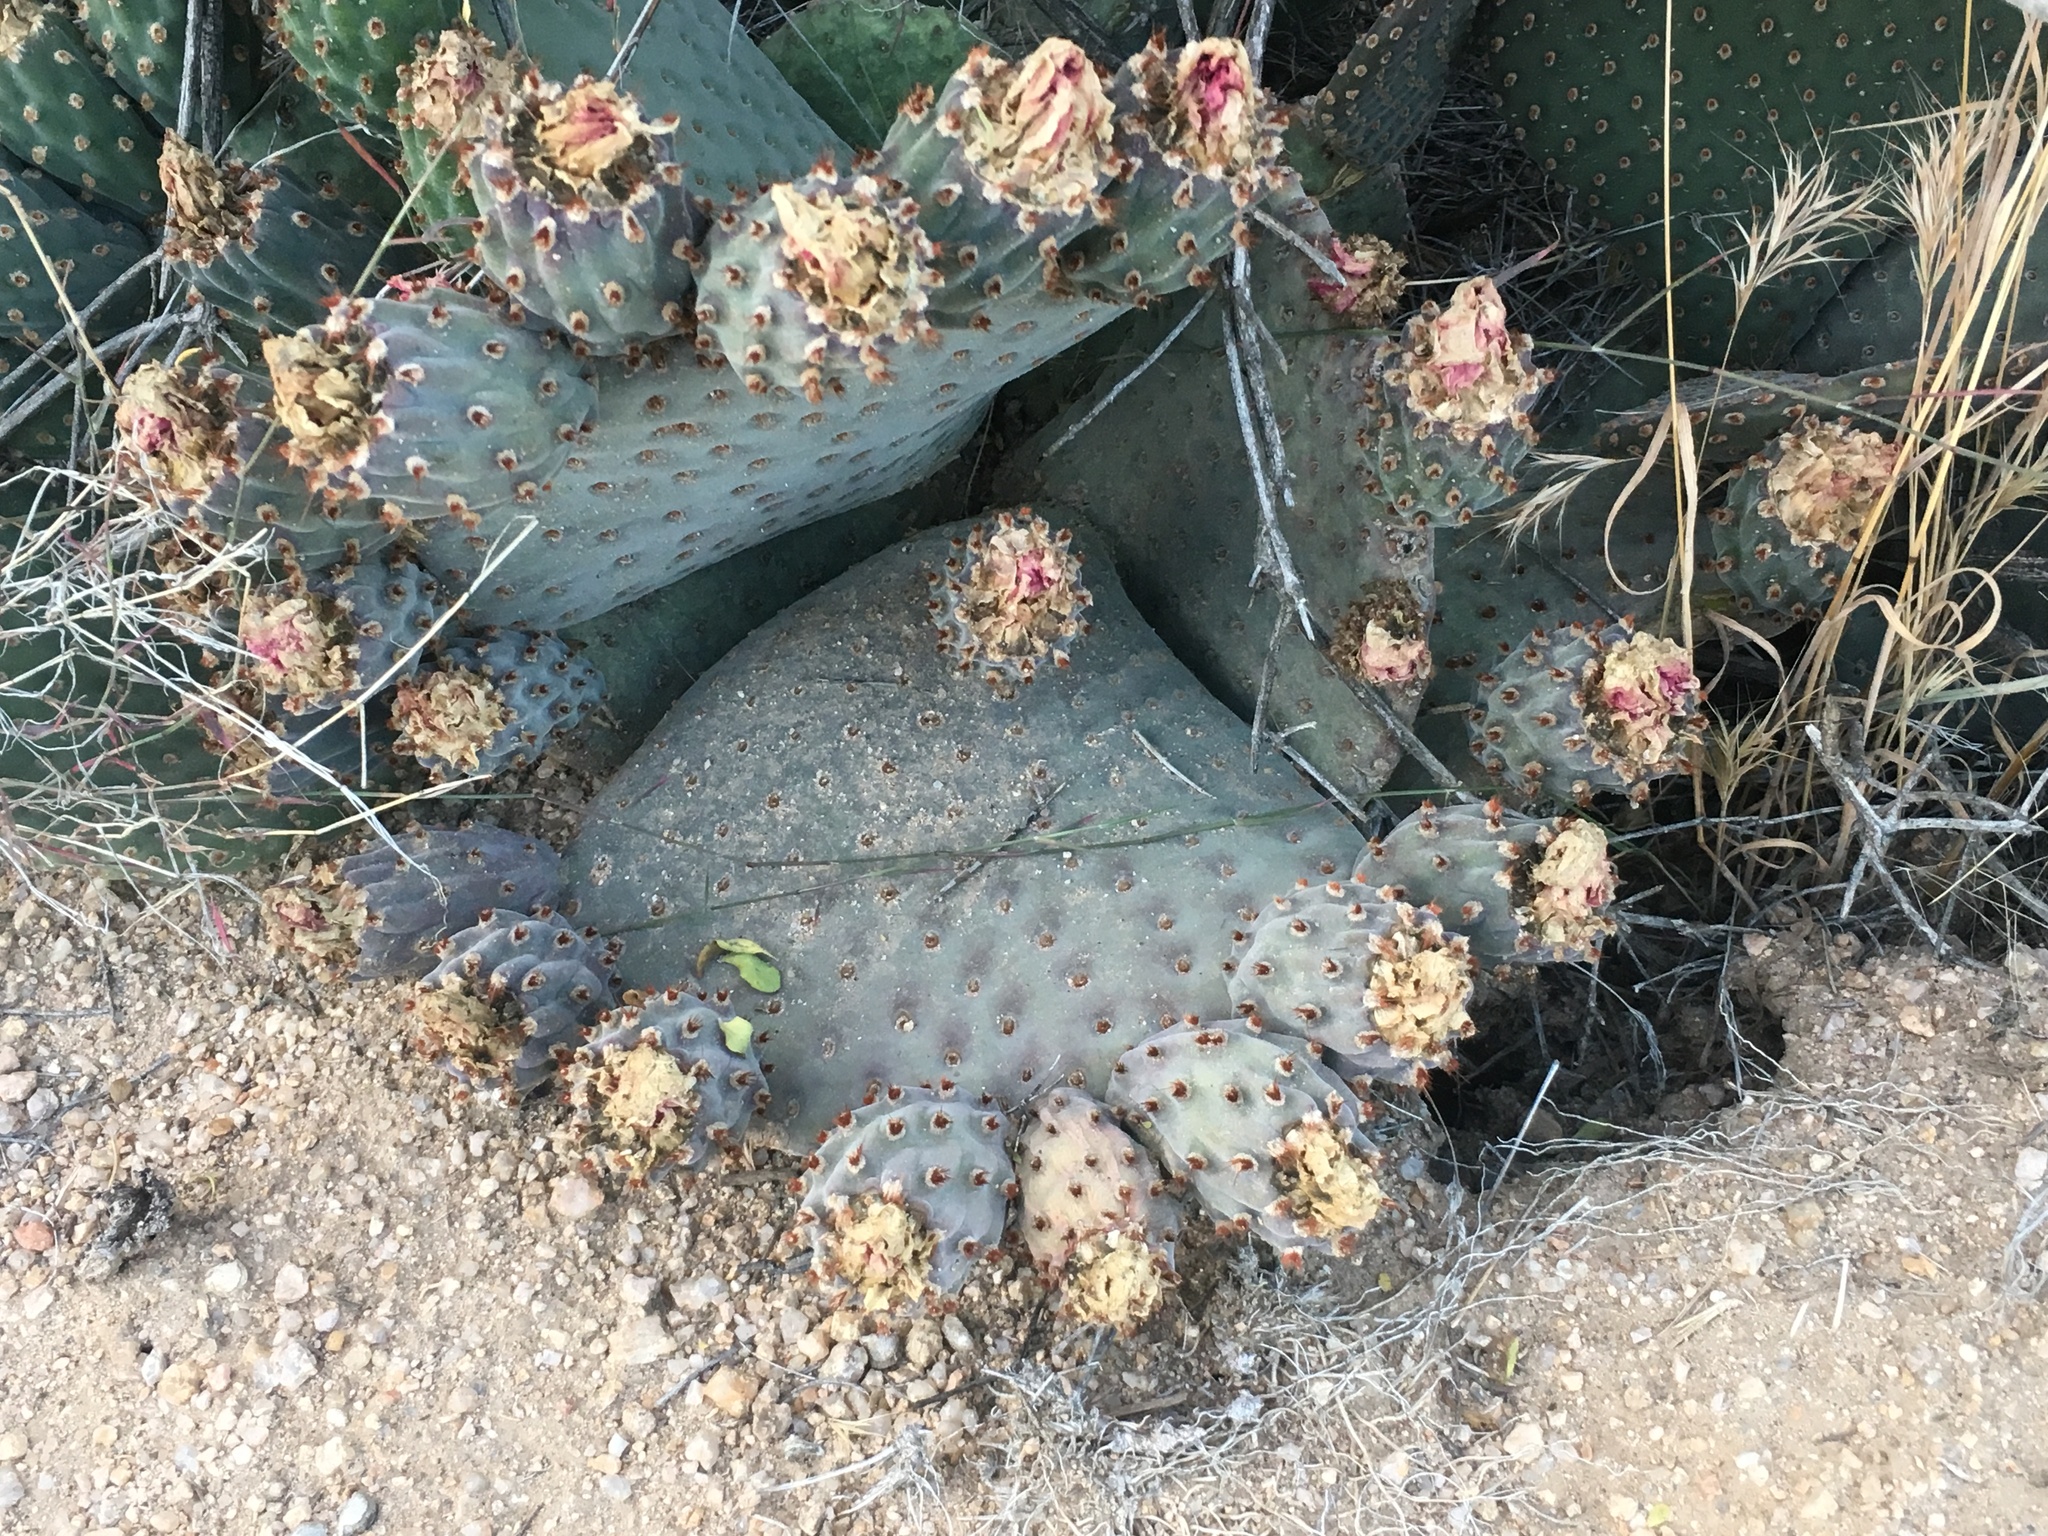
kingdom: Plantae
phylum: Tracheophyta
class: Magnoliopsida
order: Caryophyllales
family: Cactaceae
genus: Opuntia
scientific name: Opuntia basilaris
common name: Beavertail prickly-pear
